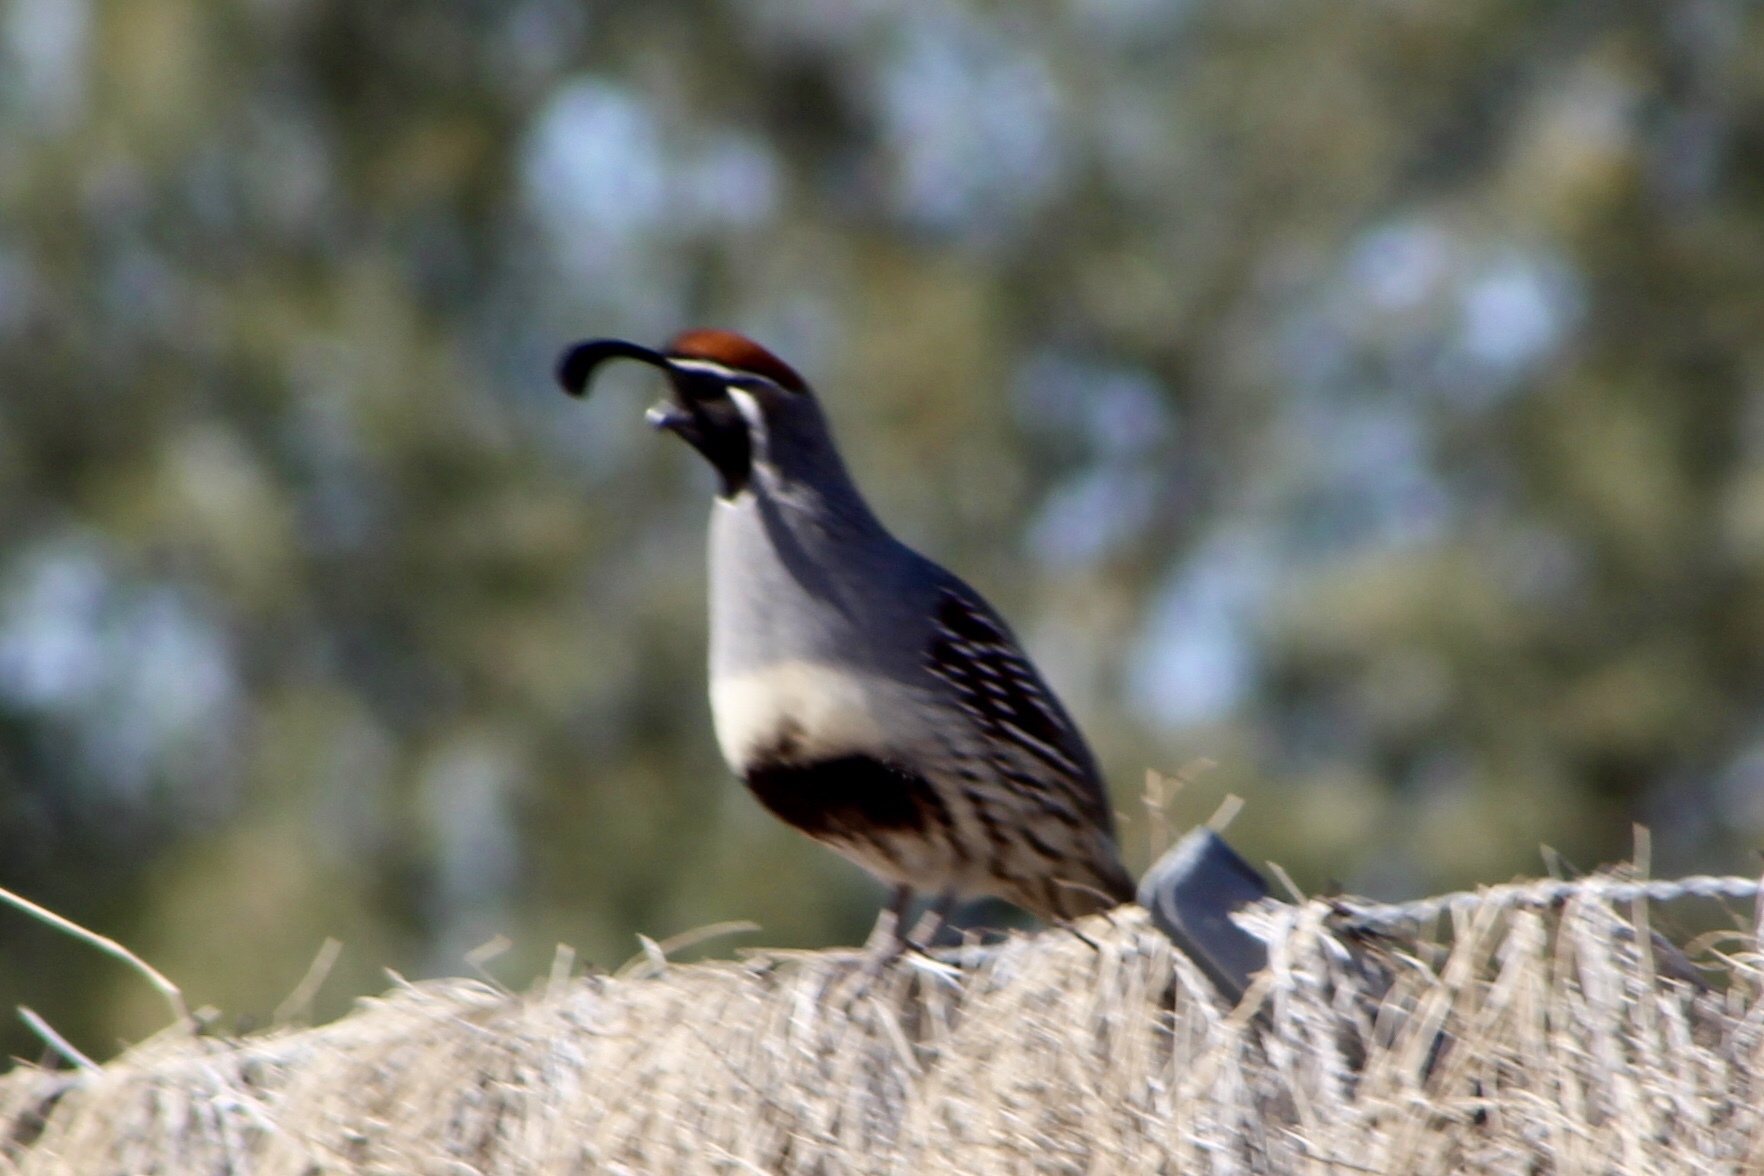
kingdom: Animalia
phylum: Chordata
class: Aves
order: Galliformes
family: Odontophoridae
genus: Callipepla
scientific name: Callipepla gambelii
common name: Gambel's quail
